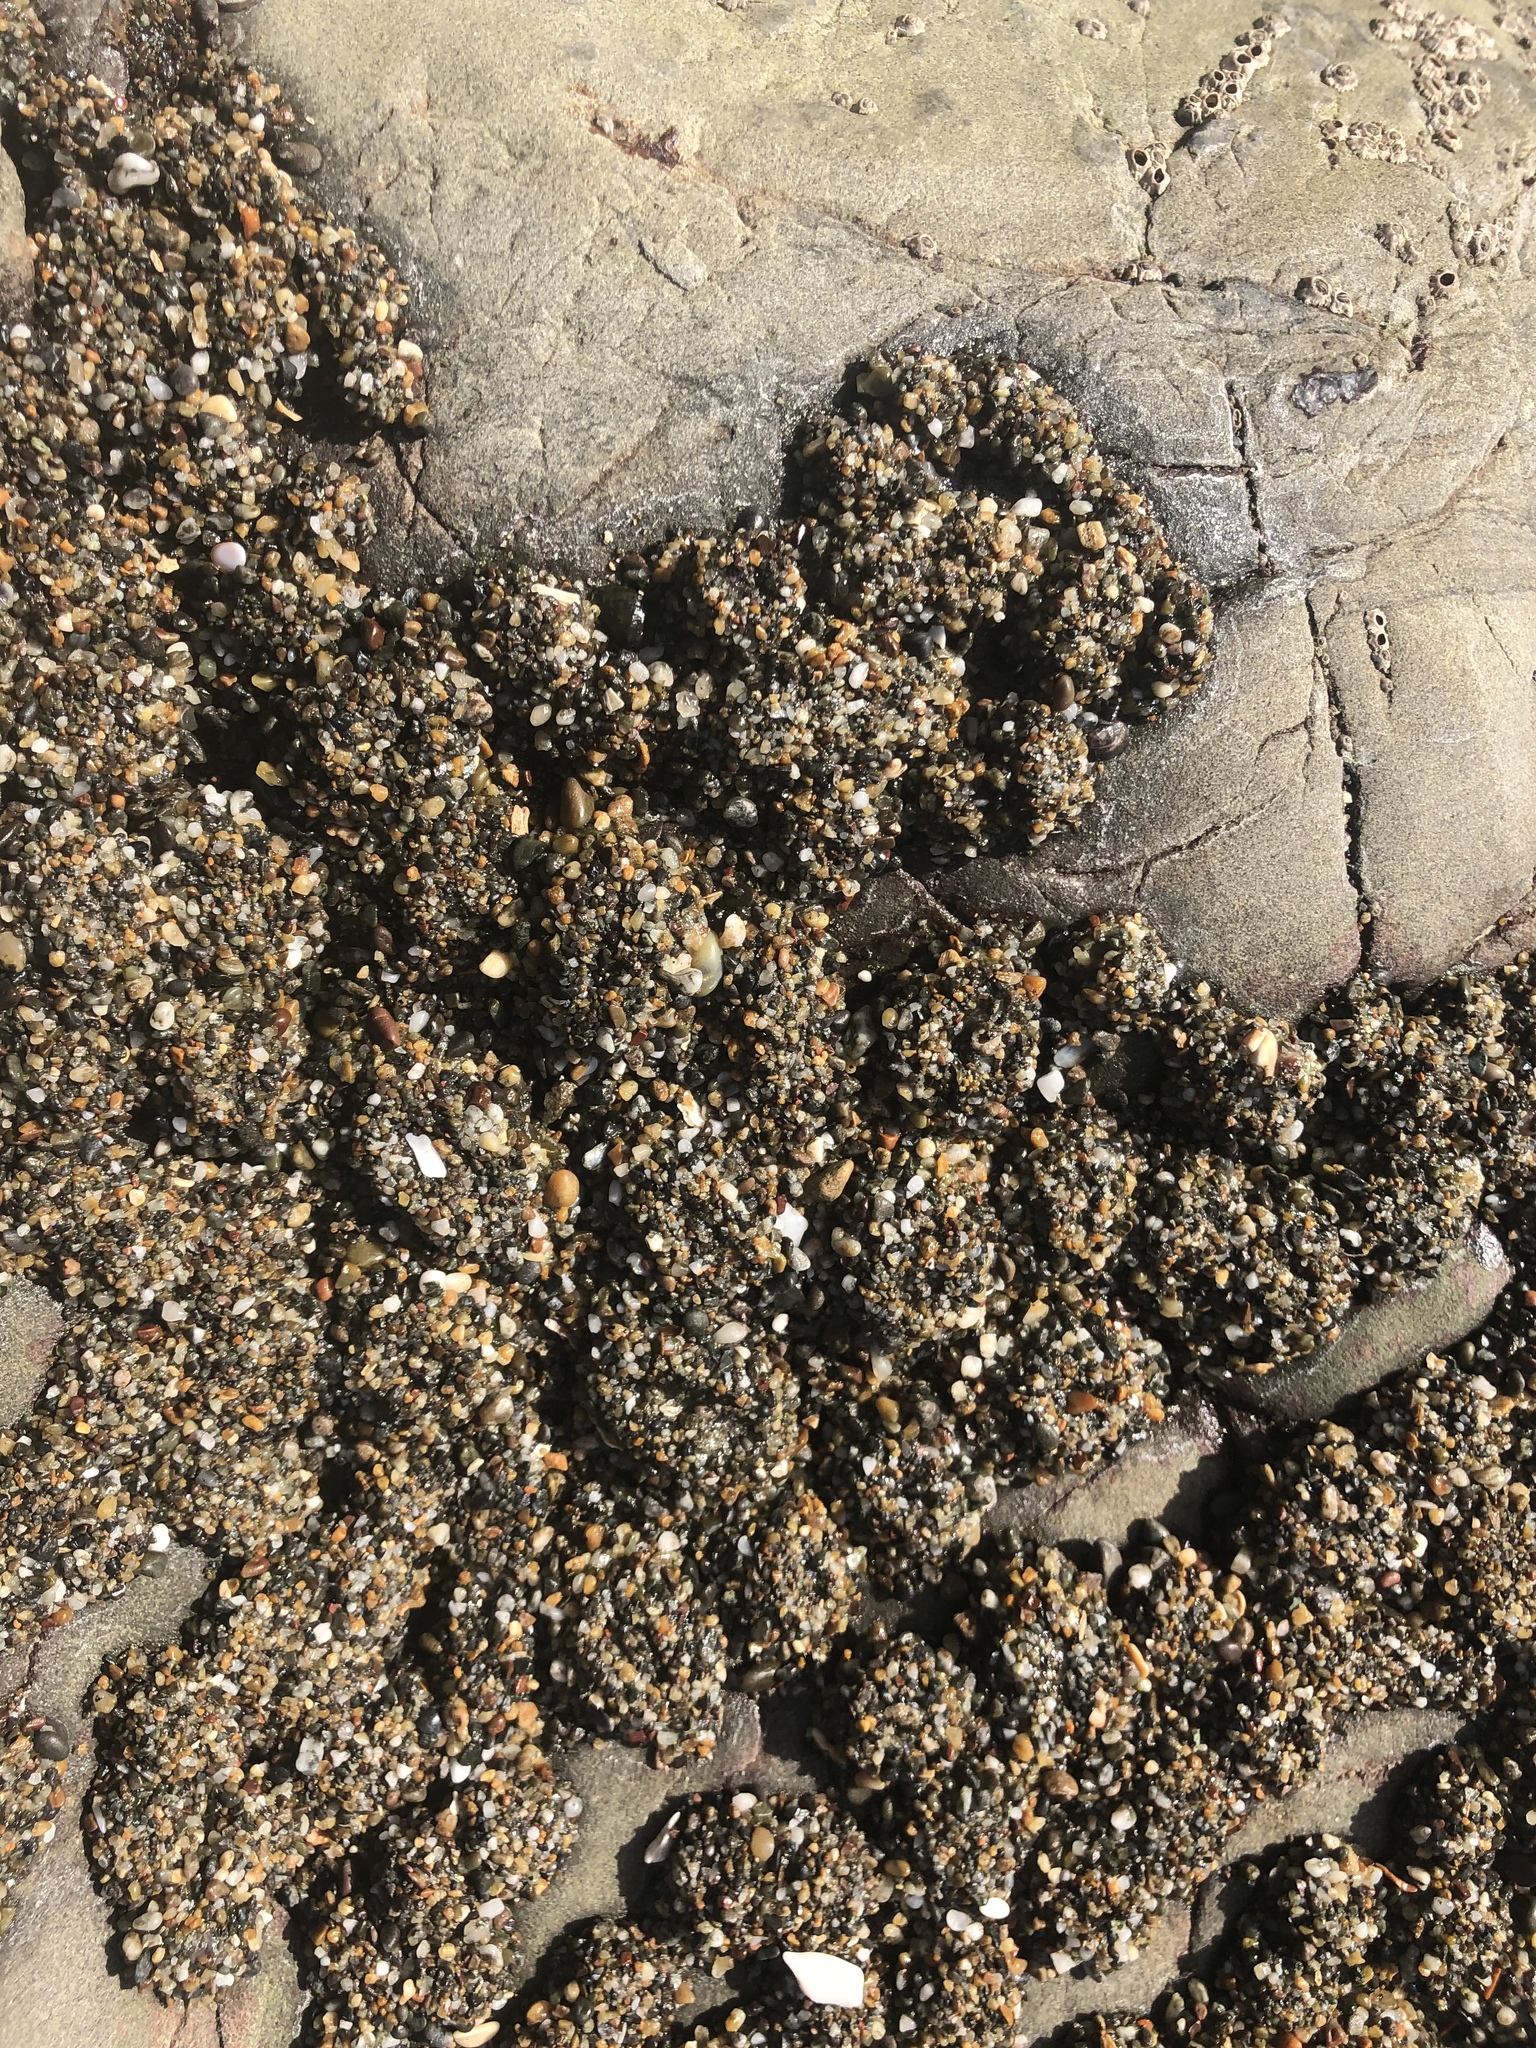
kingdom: Animalia
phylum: Cnidaria
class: Anthozoa
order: Actiniaria
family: Actiniidae
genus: Anthopleura
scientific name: Anthopleura elegantissima
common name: Clonal anemone
